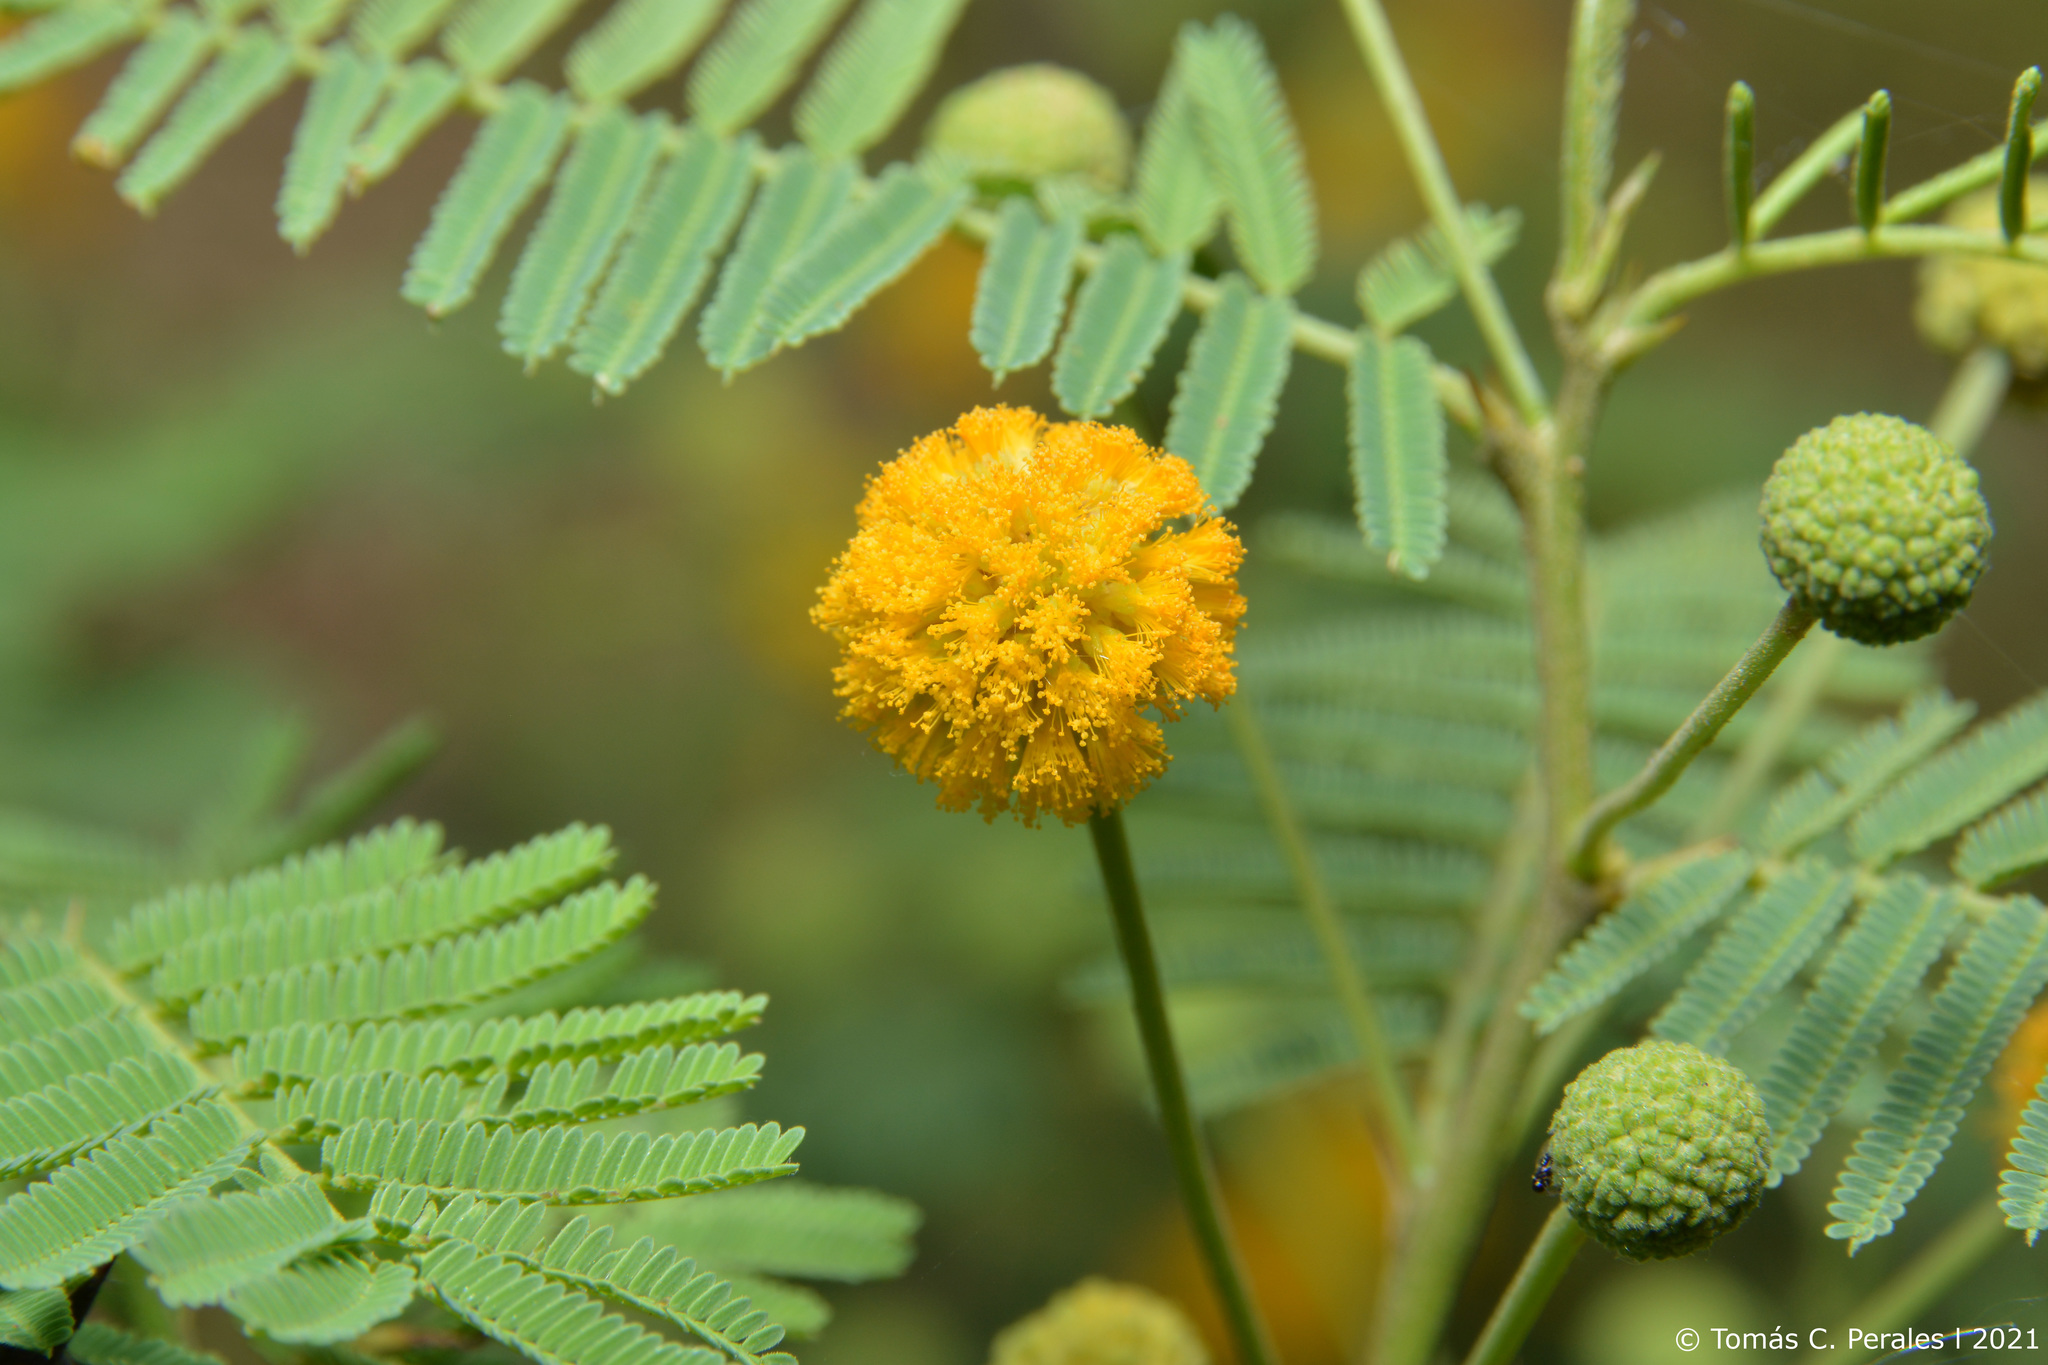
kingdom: Plantae
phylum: Tracheophyta
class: Magnoliopsida
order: Fabales
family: Fabaceae
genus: Vachellia
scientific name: Vachellia aroma
